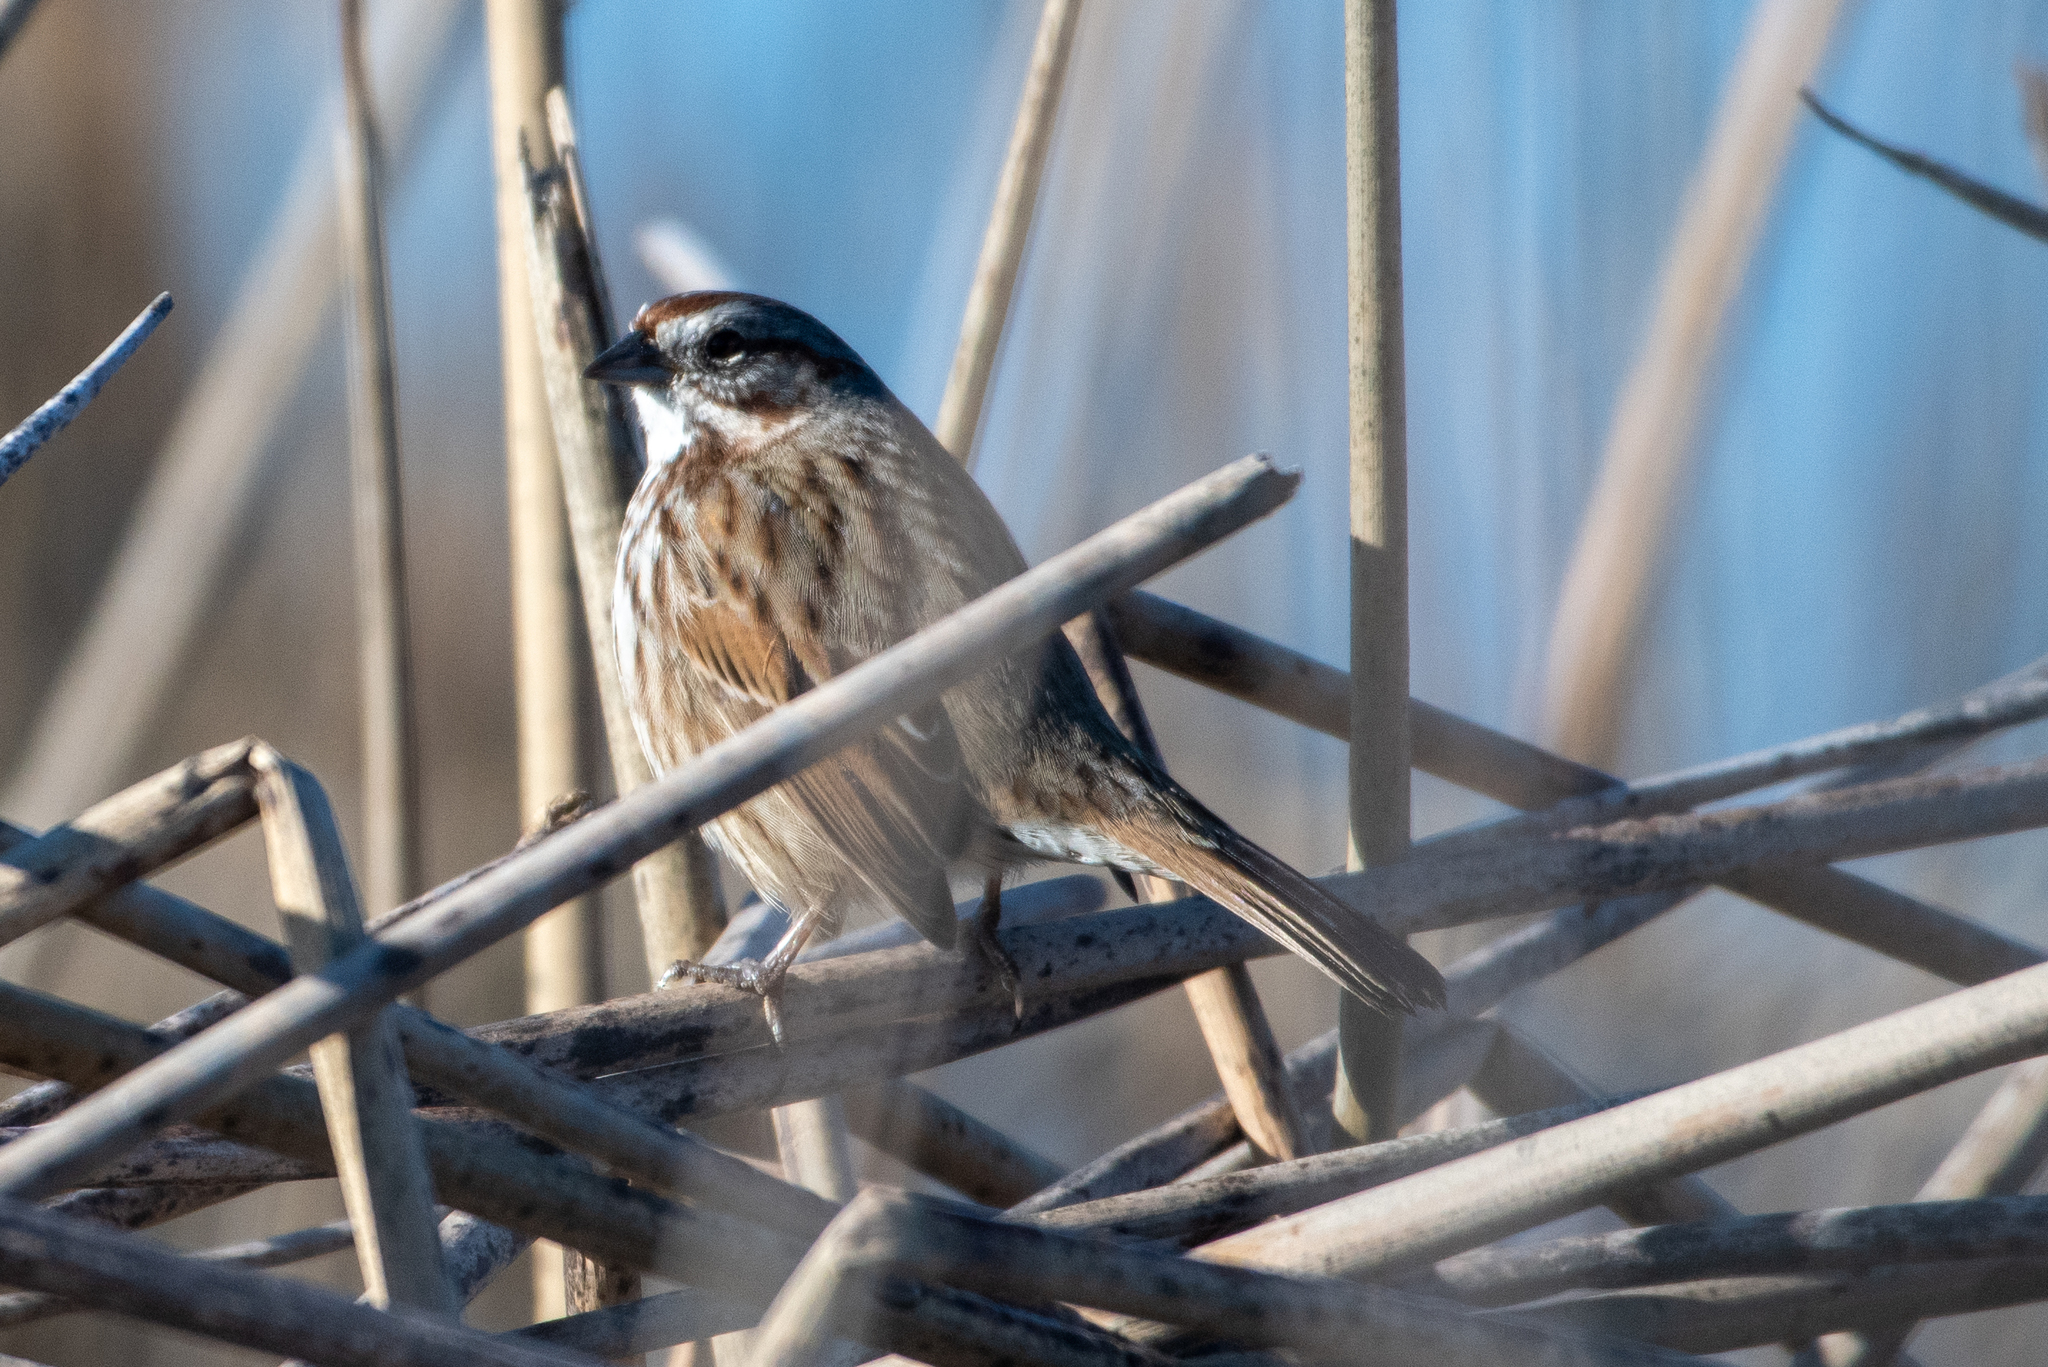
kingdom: Animalia
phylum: Chordata
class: Aves
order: Passeriformes
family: Passerellidae
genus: Melospiza
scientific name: Melospiza melodia
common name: Song sparrow
